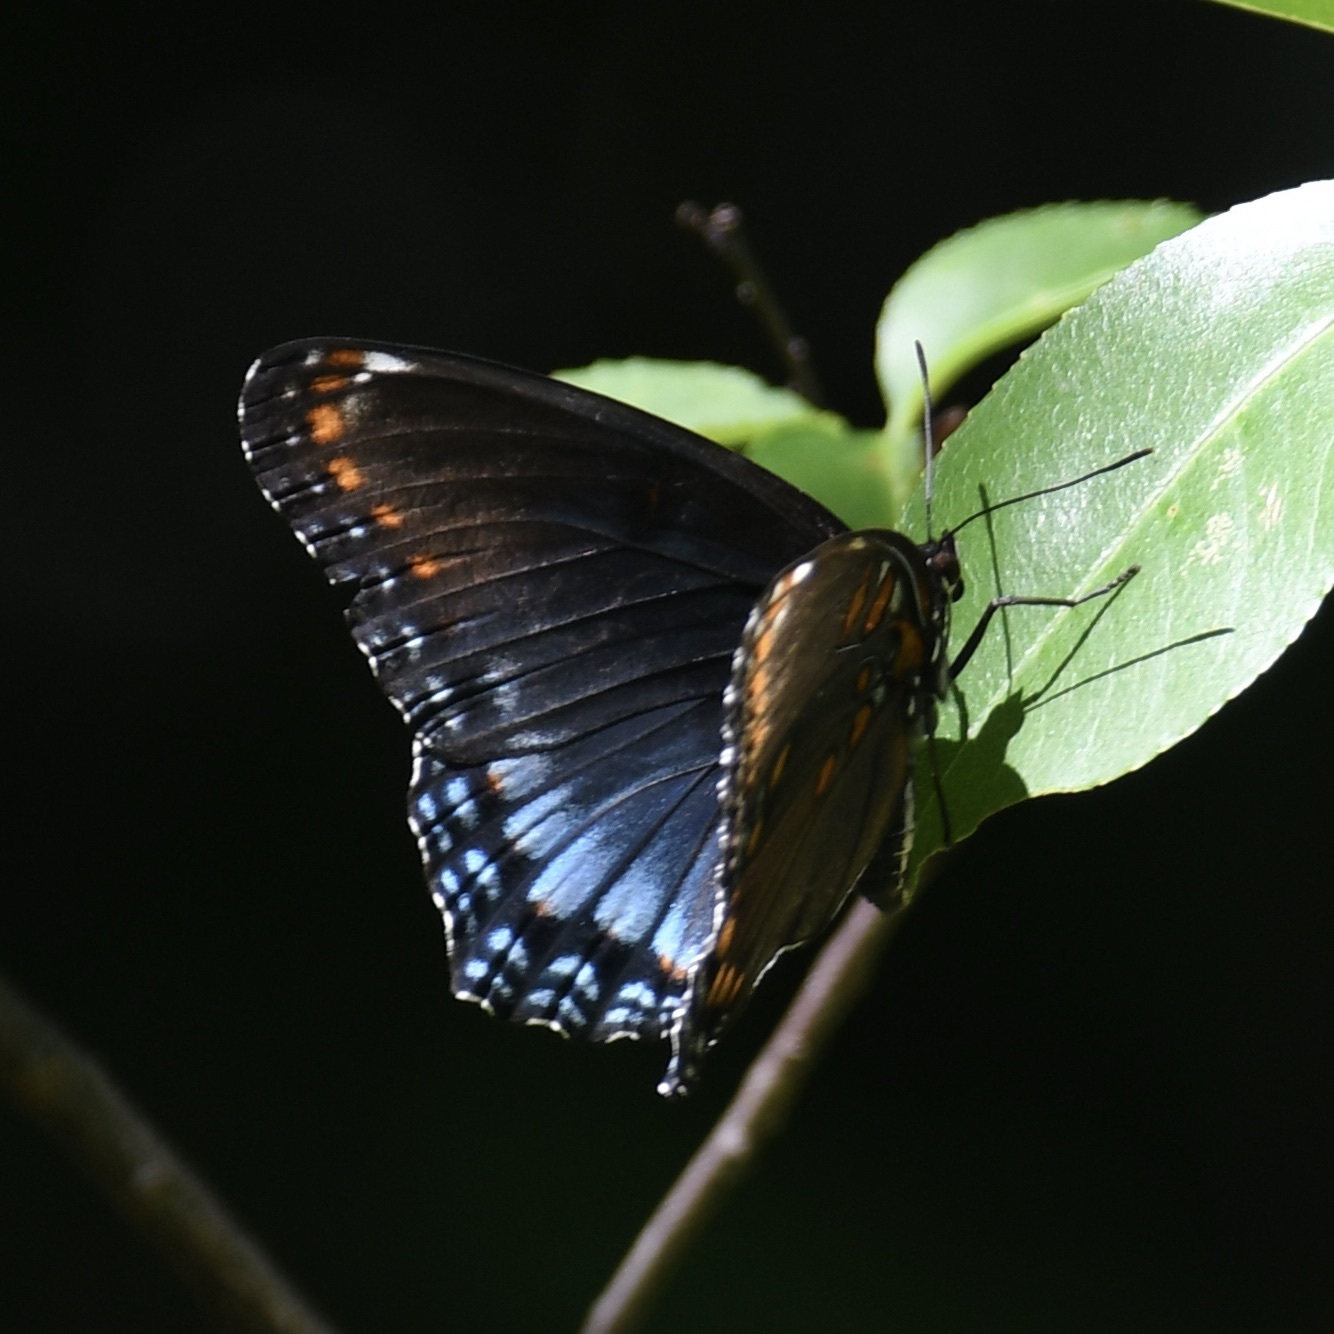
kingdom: Animalia
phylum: Arthropoda
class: Insecta
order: Lepidoptera
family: Nymphalidae
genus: Limenitis
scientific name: Limenitis astyanax
